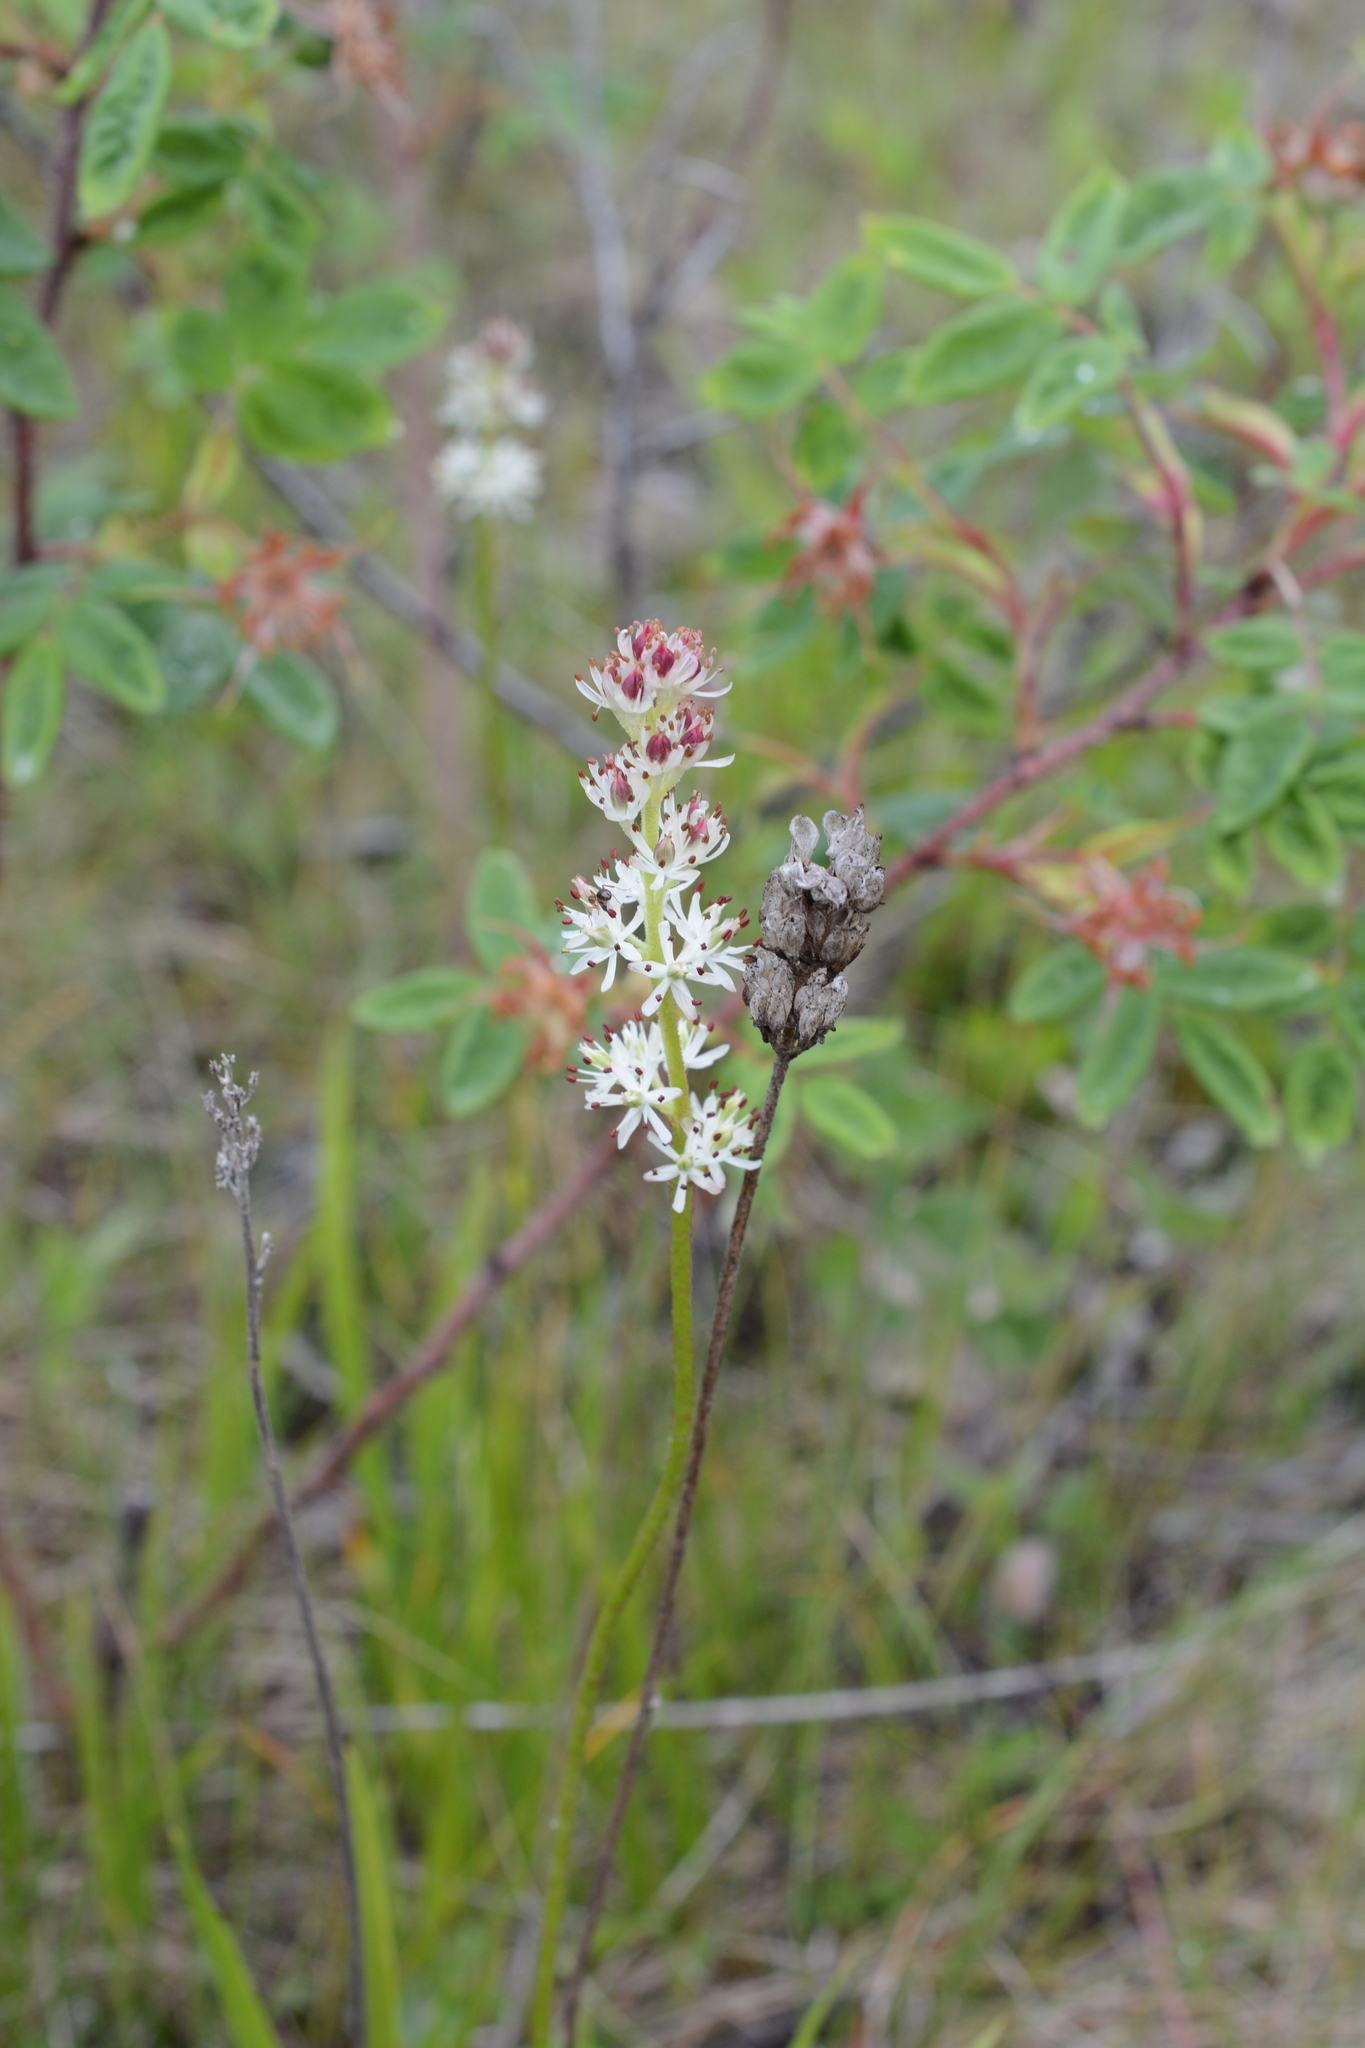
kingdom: Plantae
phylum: Tracheophyta
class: Liliopsida
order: Alismatales
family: Tofieldiaceae
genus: Triantha
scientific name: Triantha glutinosa
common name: Glutinous tofieldia
